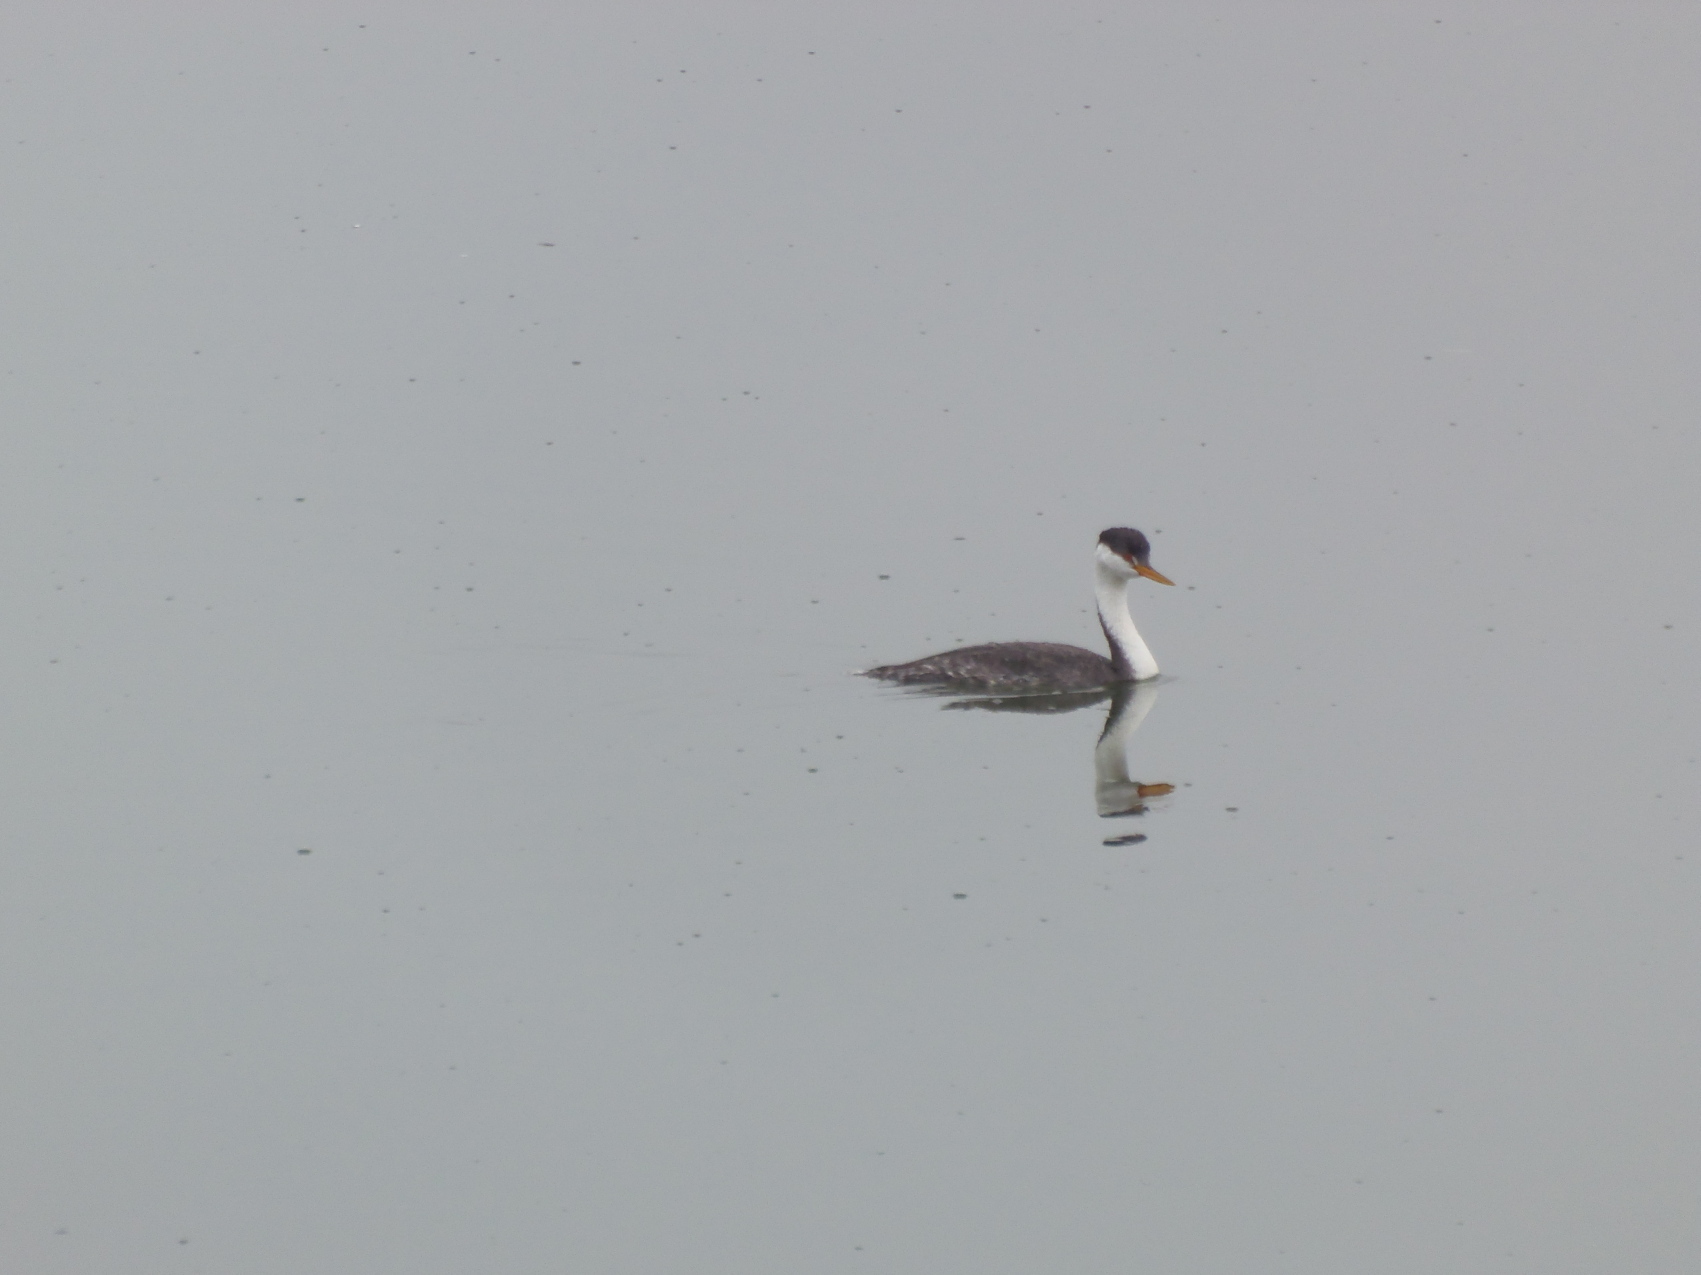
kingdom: Animalia
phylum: Chordata
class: Aves
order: Podicipediformes
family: Podicipedidae
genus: Aechmophorus
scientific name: Aechmophorus clarkii
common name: Clark's grebe
